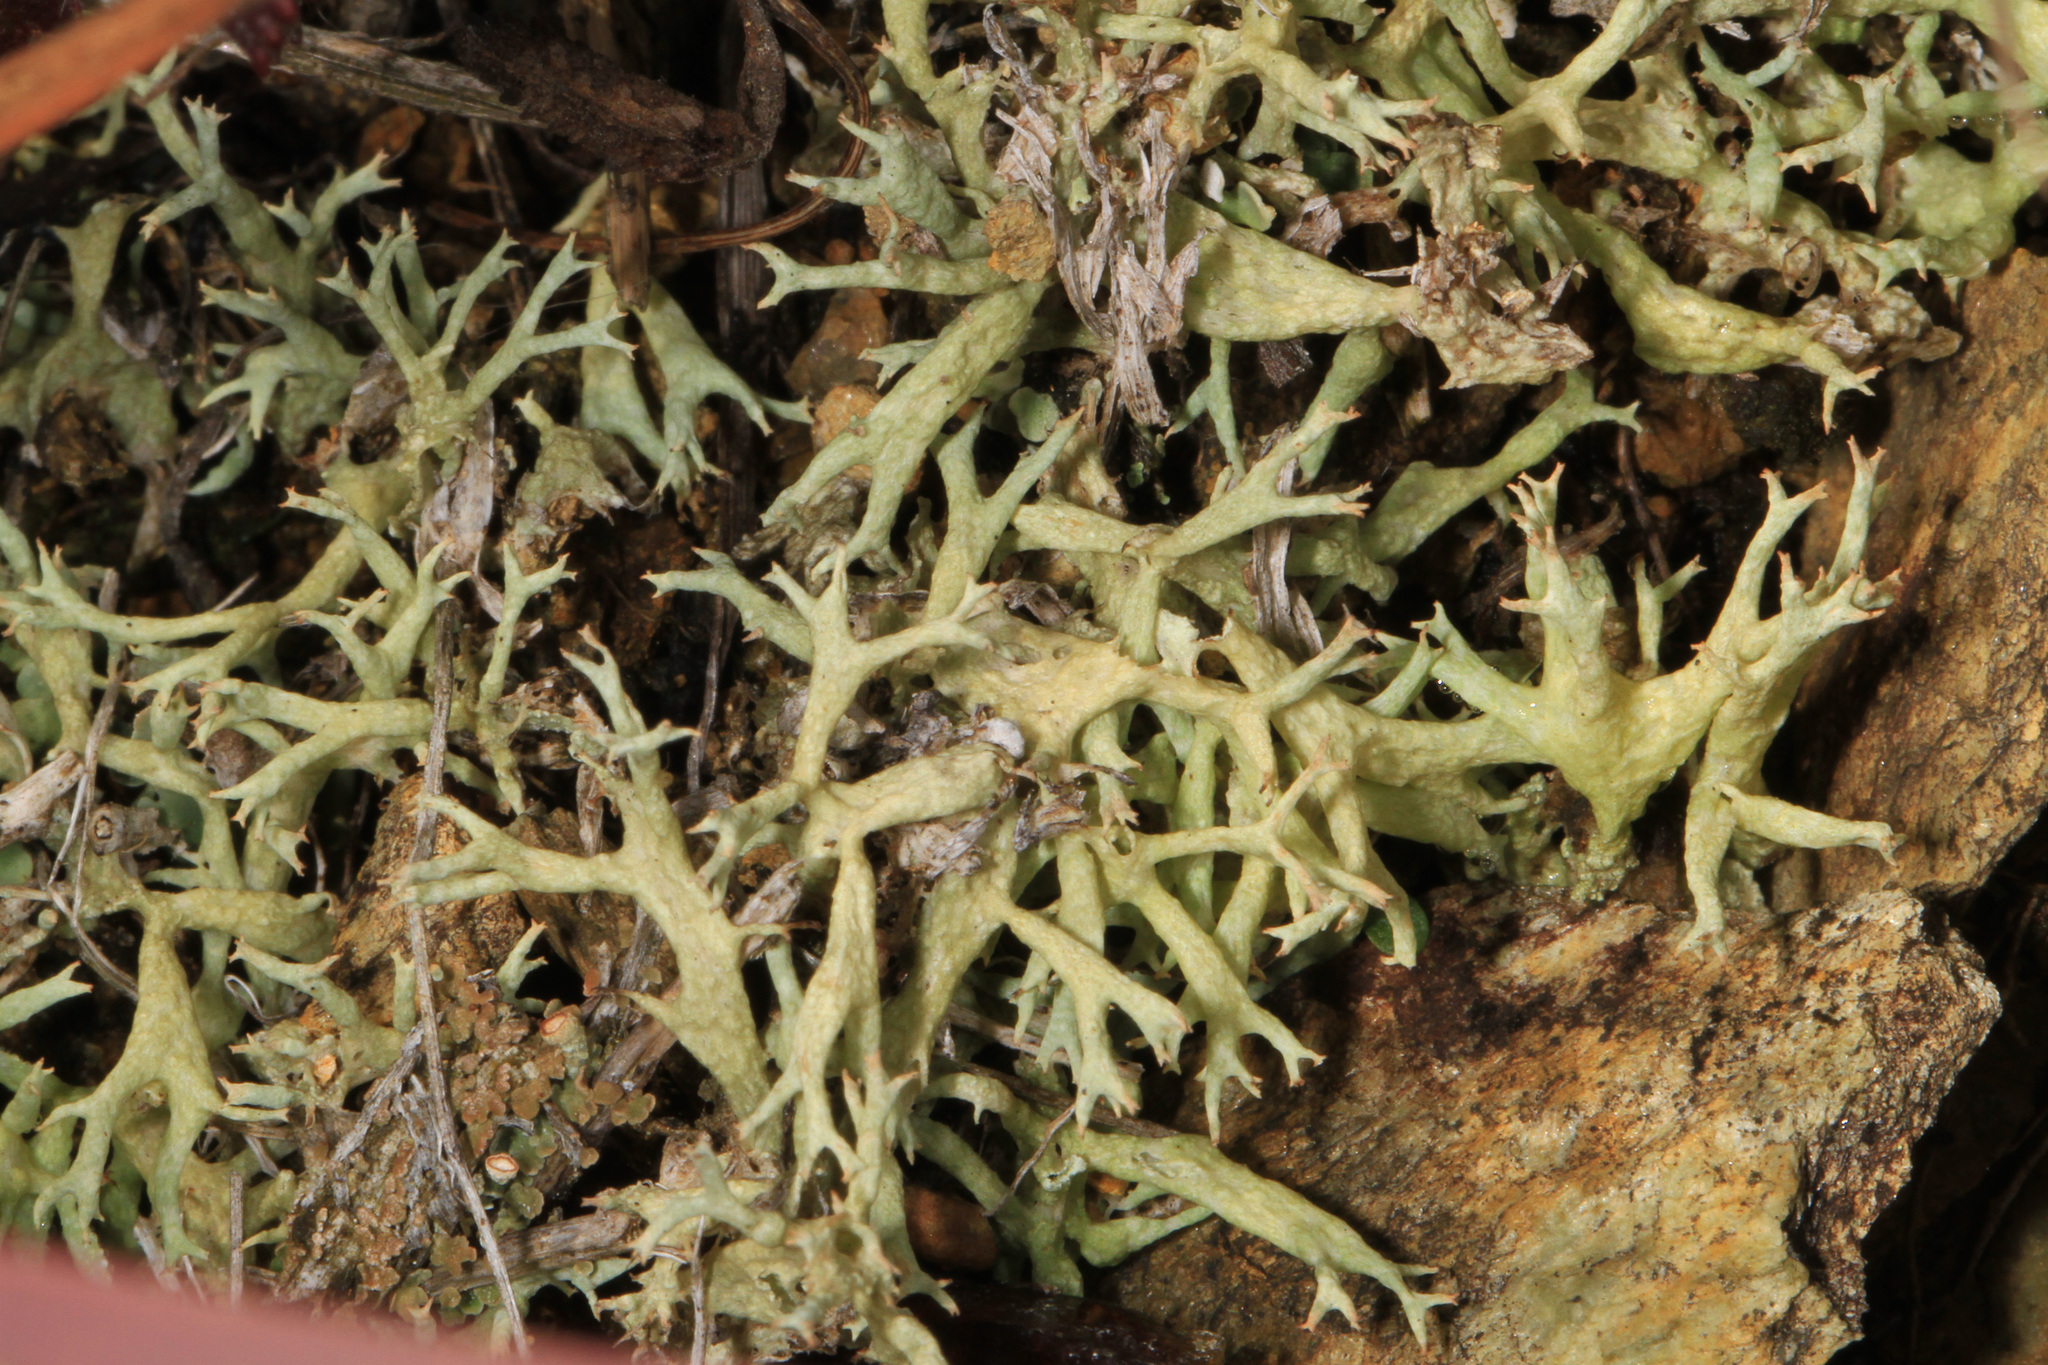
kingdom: Fungi
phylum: Ascomycota
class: Lecanoromycetes
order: Lecanorales
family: Cladoniaceae
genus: Cladonia
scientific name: Cladonia uncialis
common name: Thorn lichen
